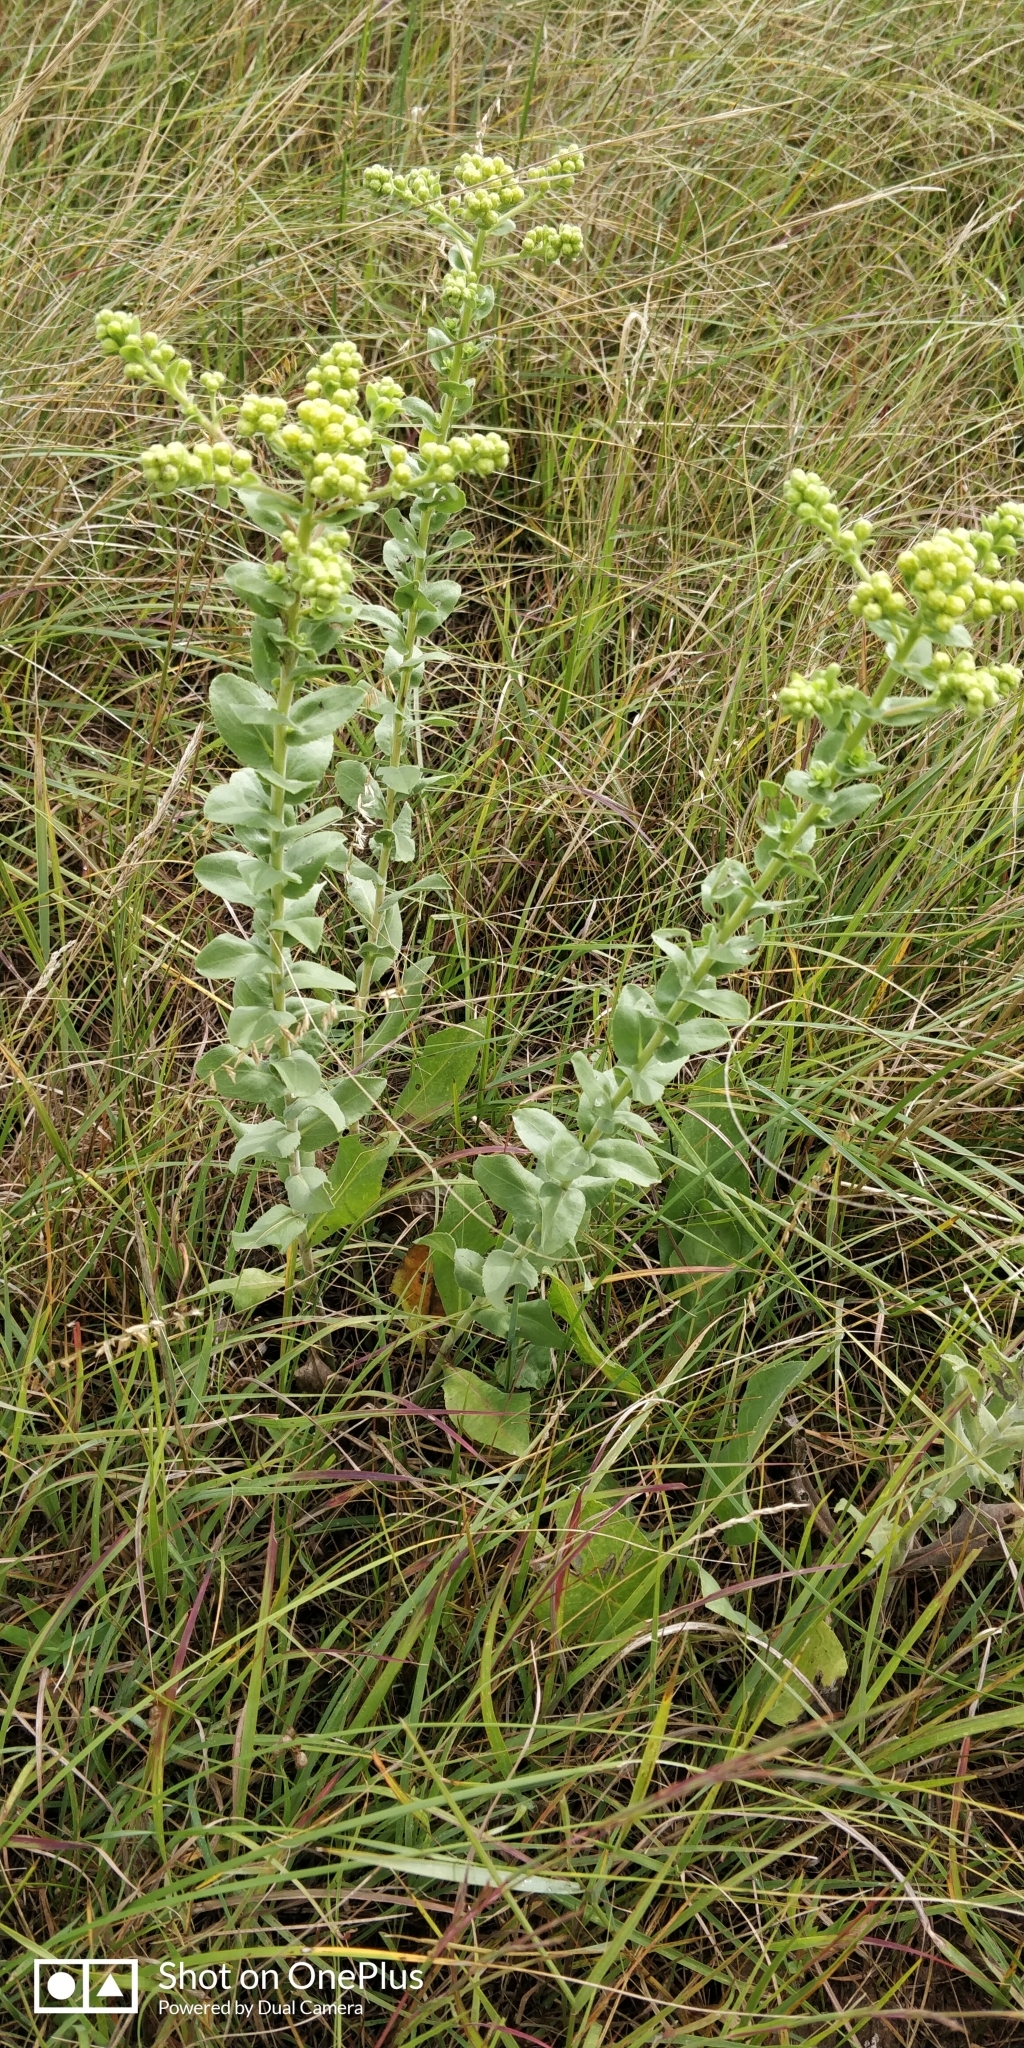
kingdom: Plantae
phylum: Tracheophyta
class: Magnoliopsida
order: Asterales
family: Asteraceae
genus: Solidago
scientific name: Solidago rigida
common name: Rigid goldenrod
